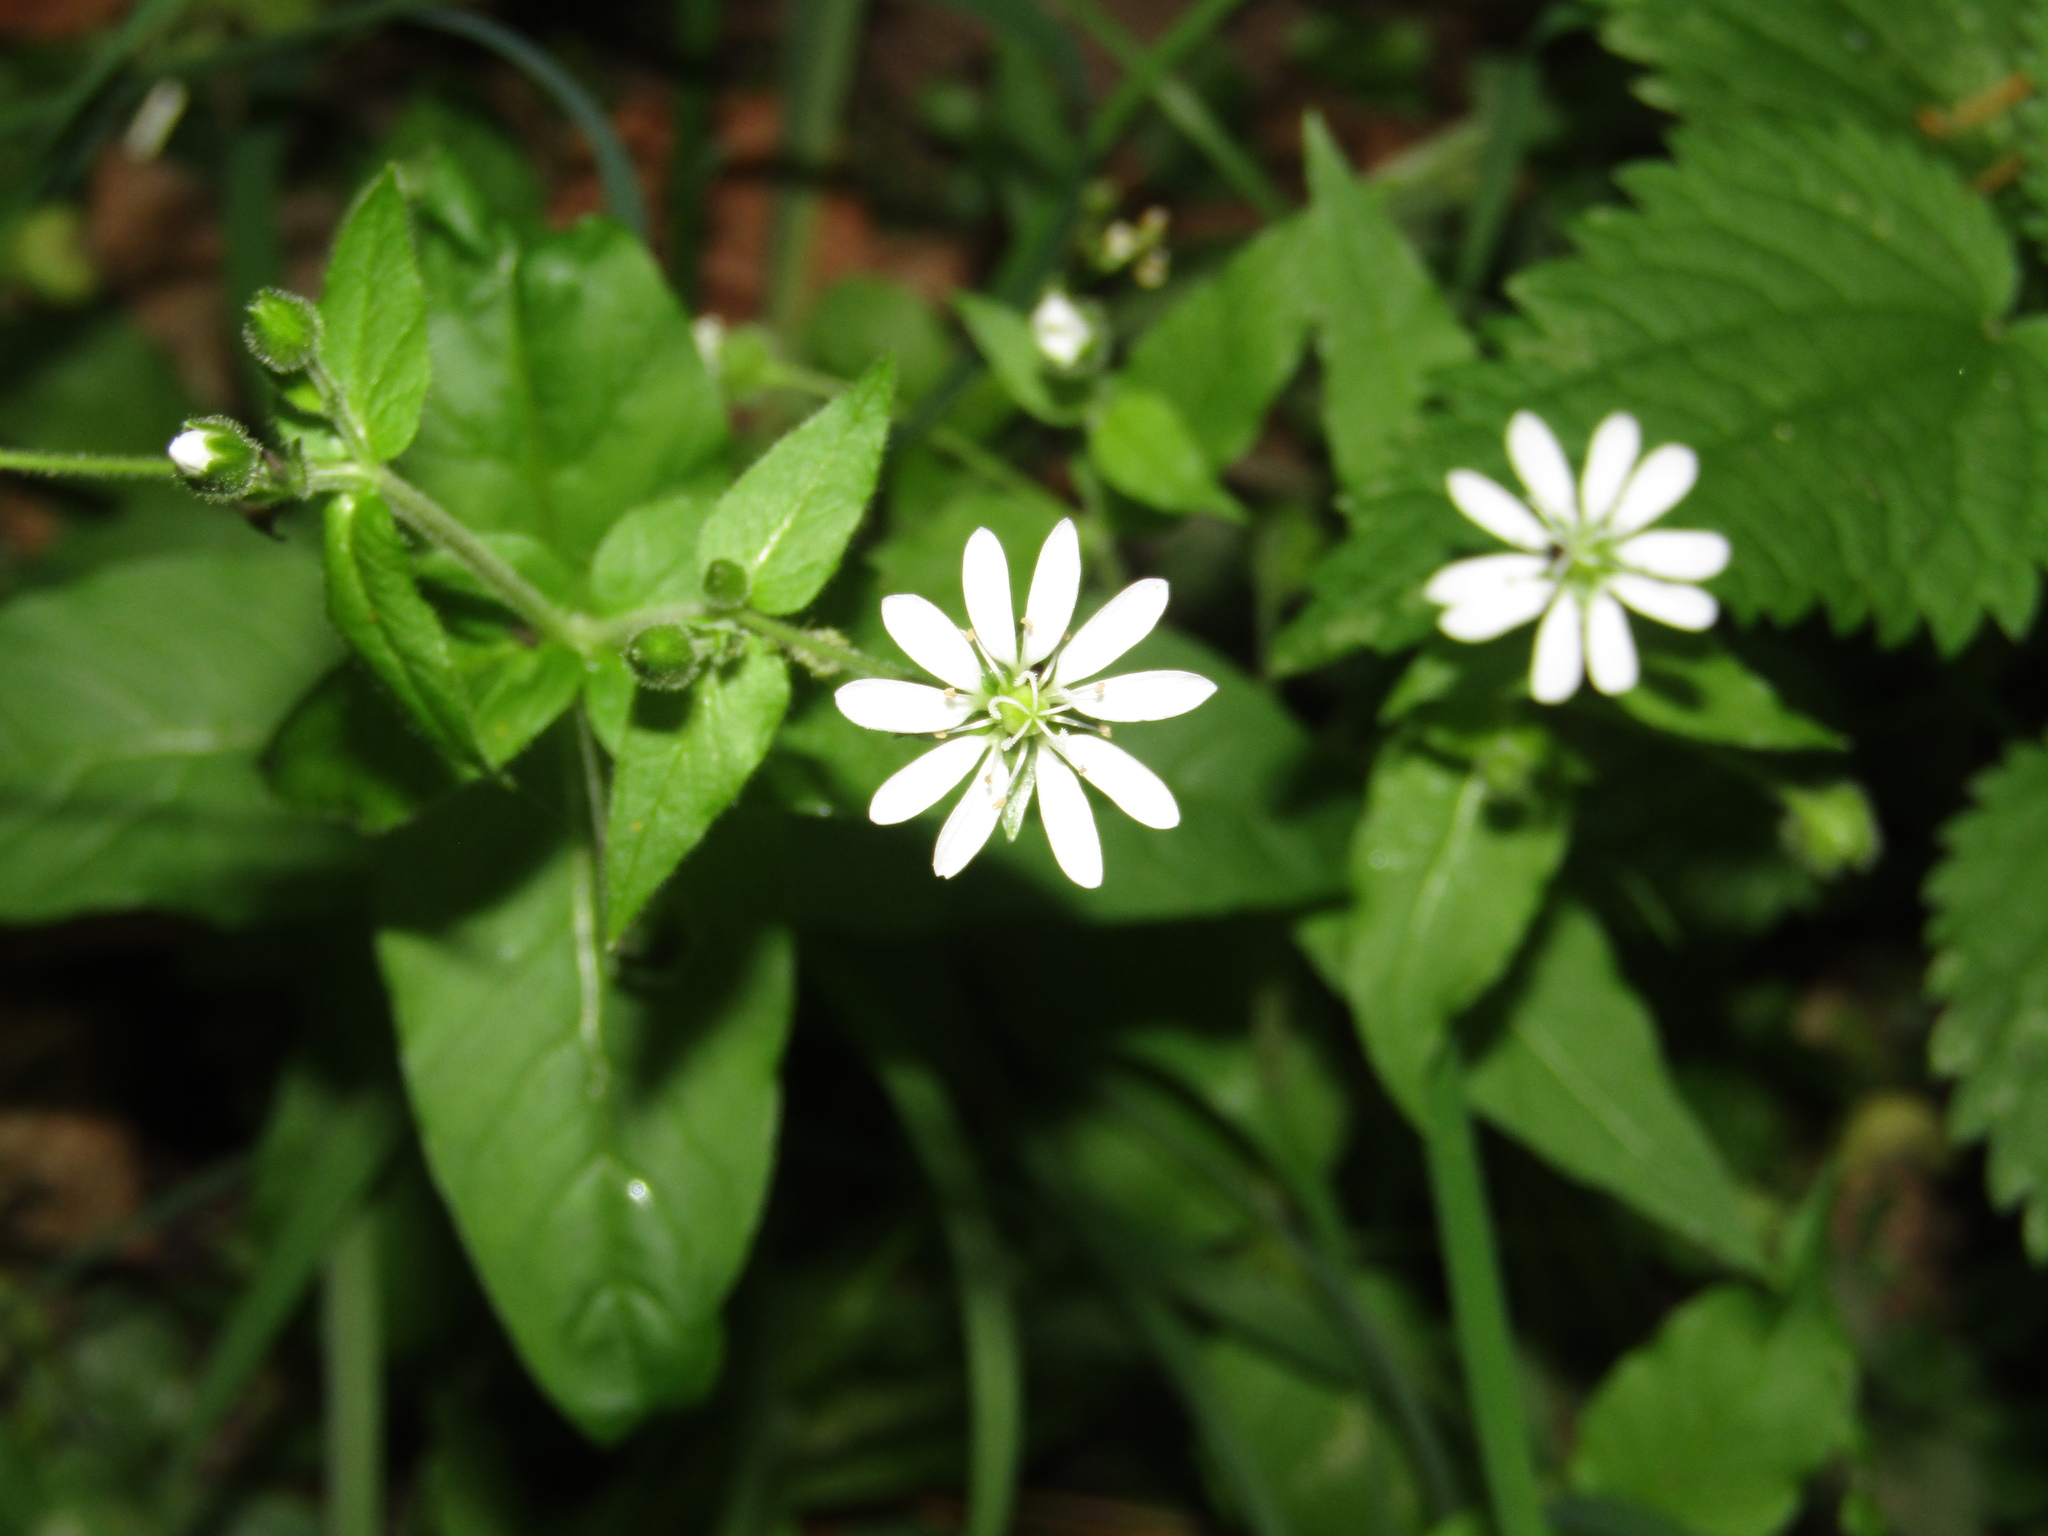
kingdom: Plantae
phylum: Tracheophyta
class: Magnoliopsida
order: Caryophyllales
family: Caryophyllaceae
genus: Stellaria
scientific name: Stellaria aquatica
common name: Water chickweed
